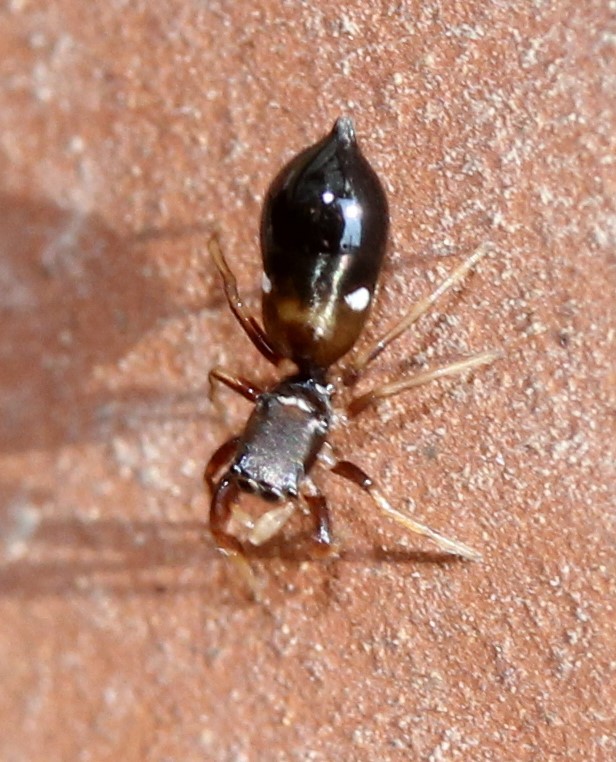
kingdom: Animalia
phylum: Arthropoda
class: Arachnida
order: Araneae
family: Salticidae
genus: Synageles
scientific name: Synageles
